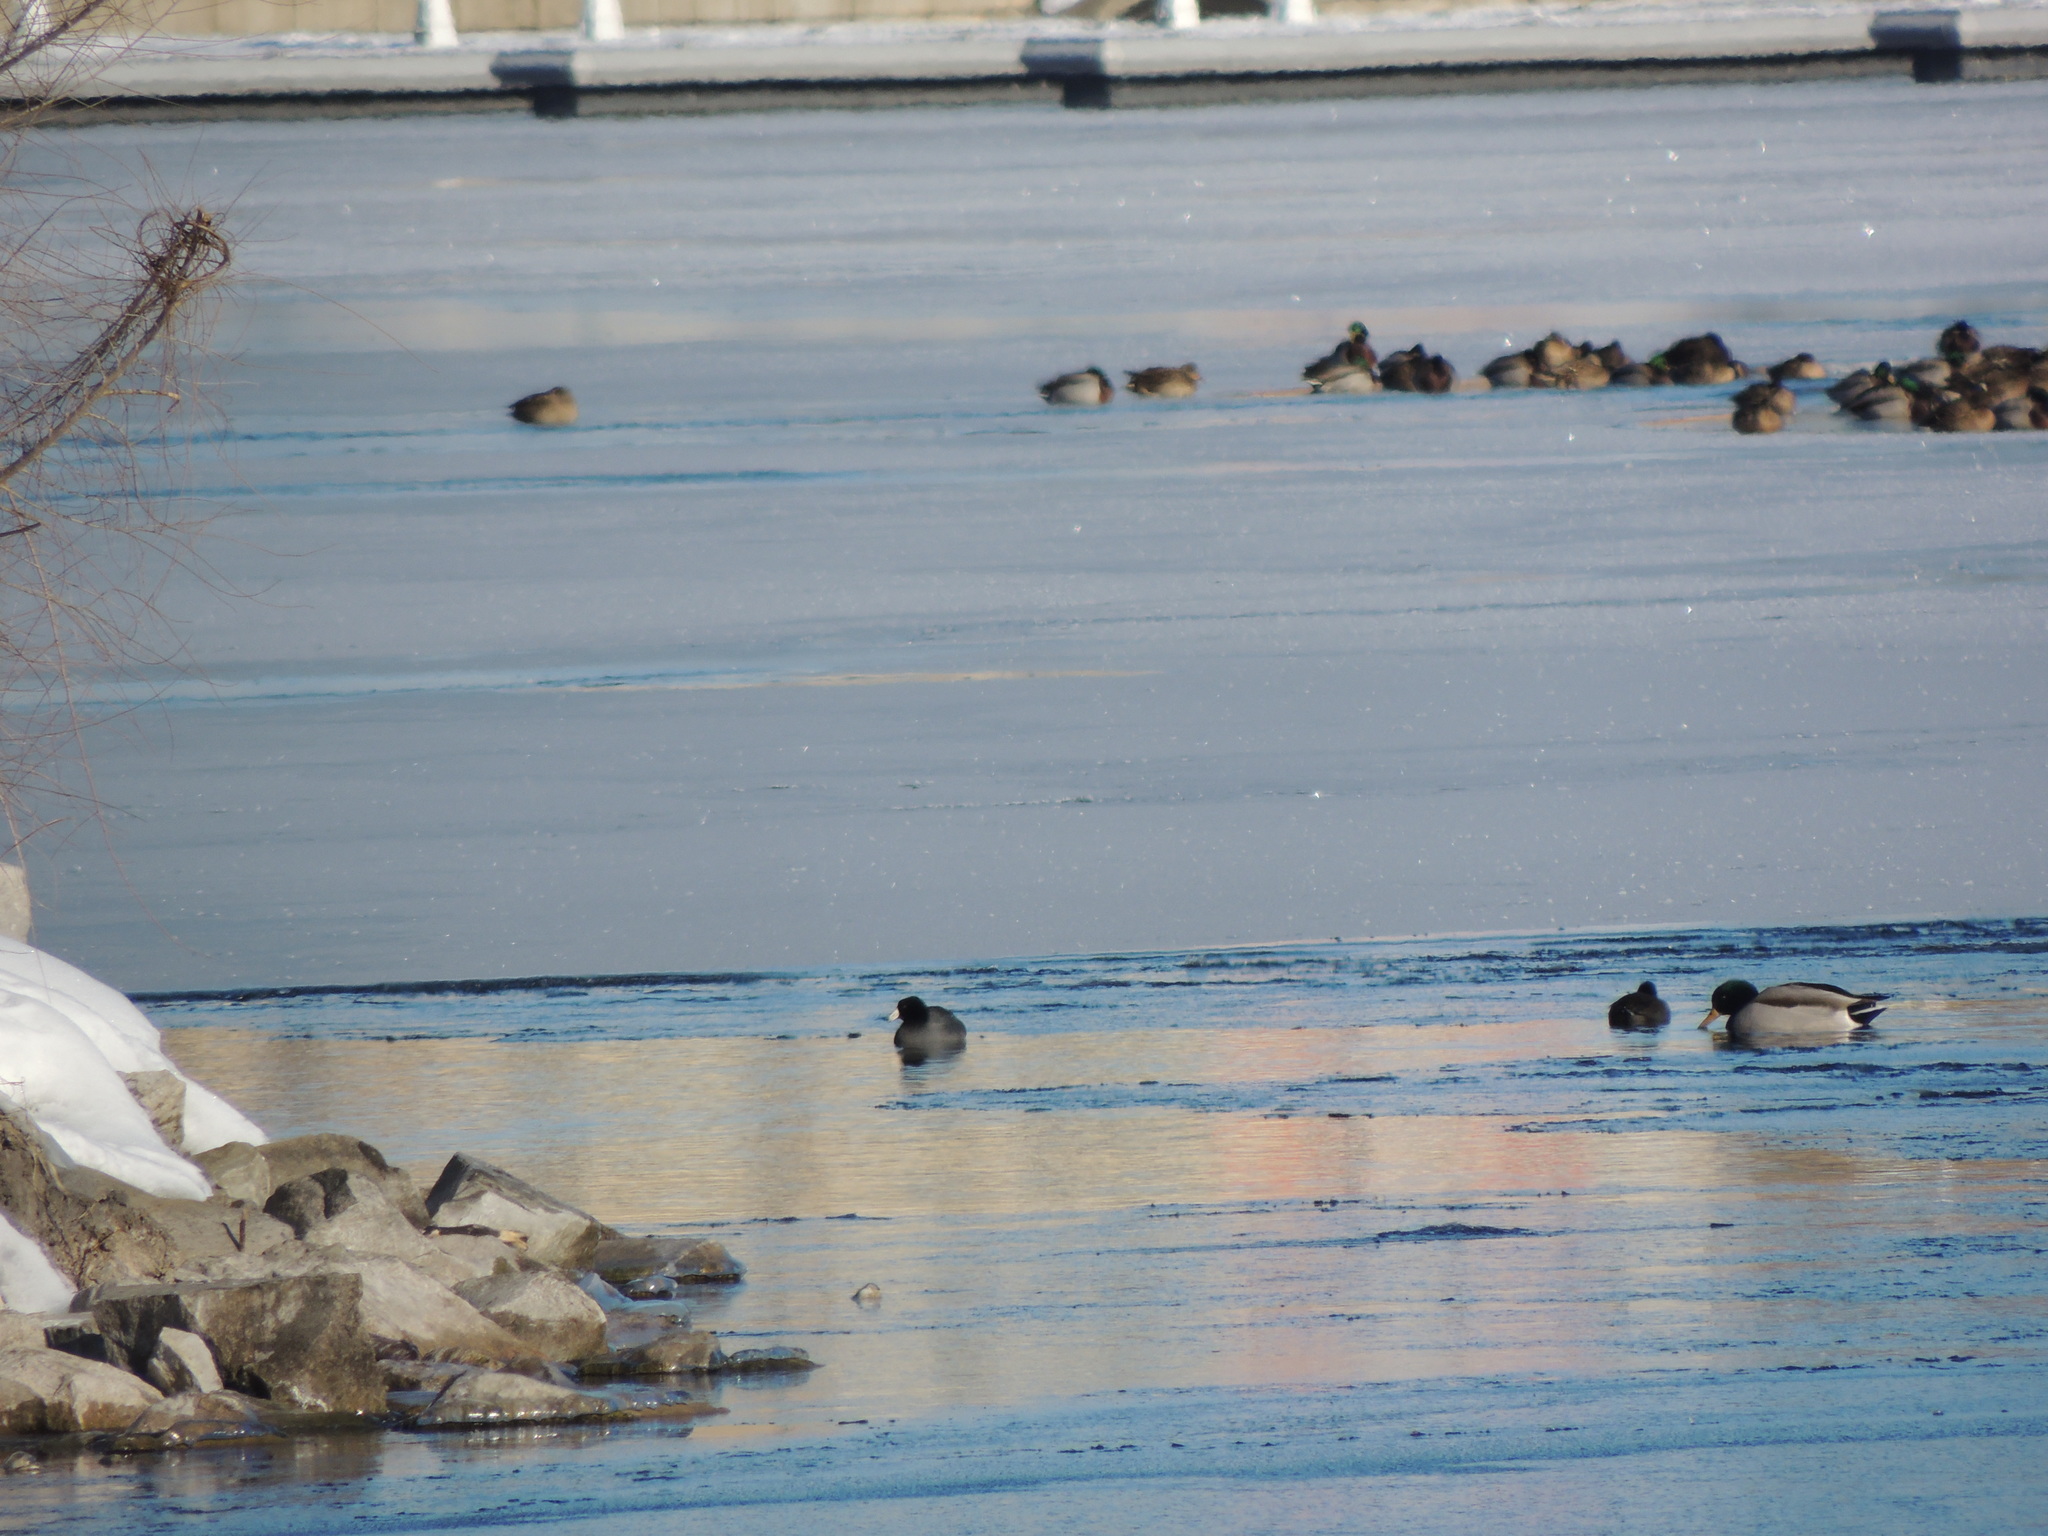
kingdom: Animalia
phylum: Chordata
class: Aves
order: Gruiformes
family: Rallidae
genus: Fulica
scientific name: Fulica americana
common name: American coot
